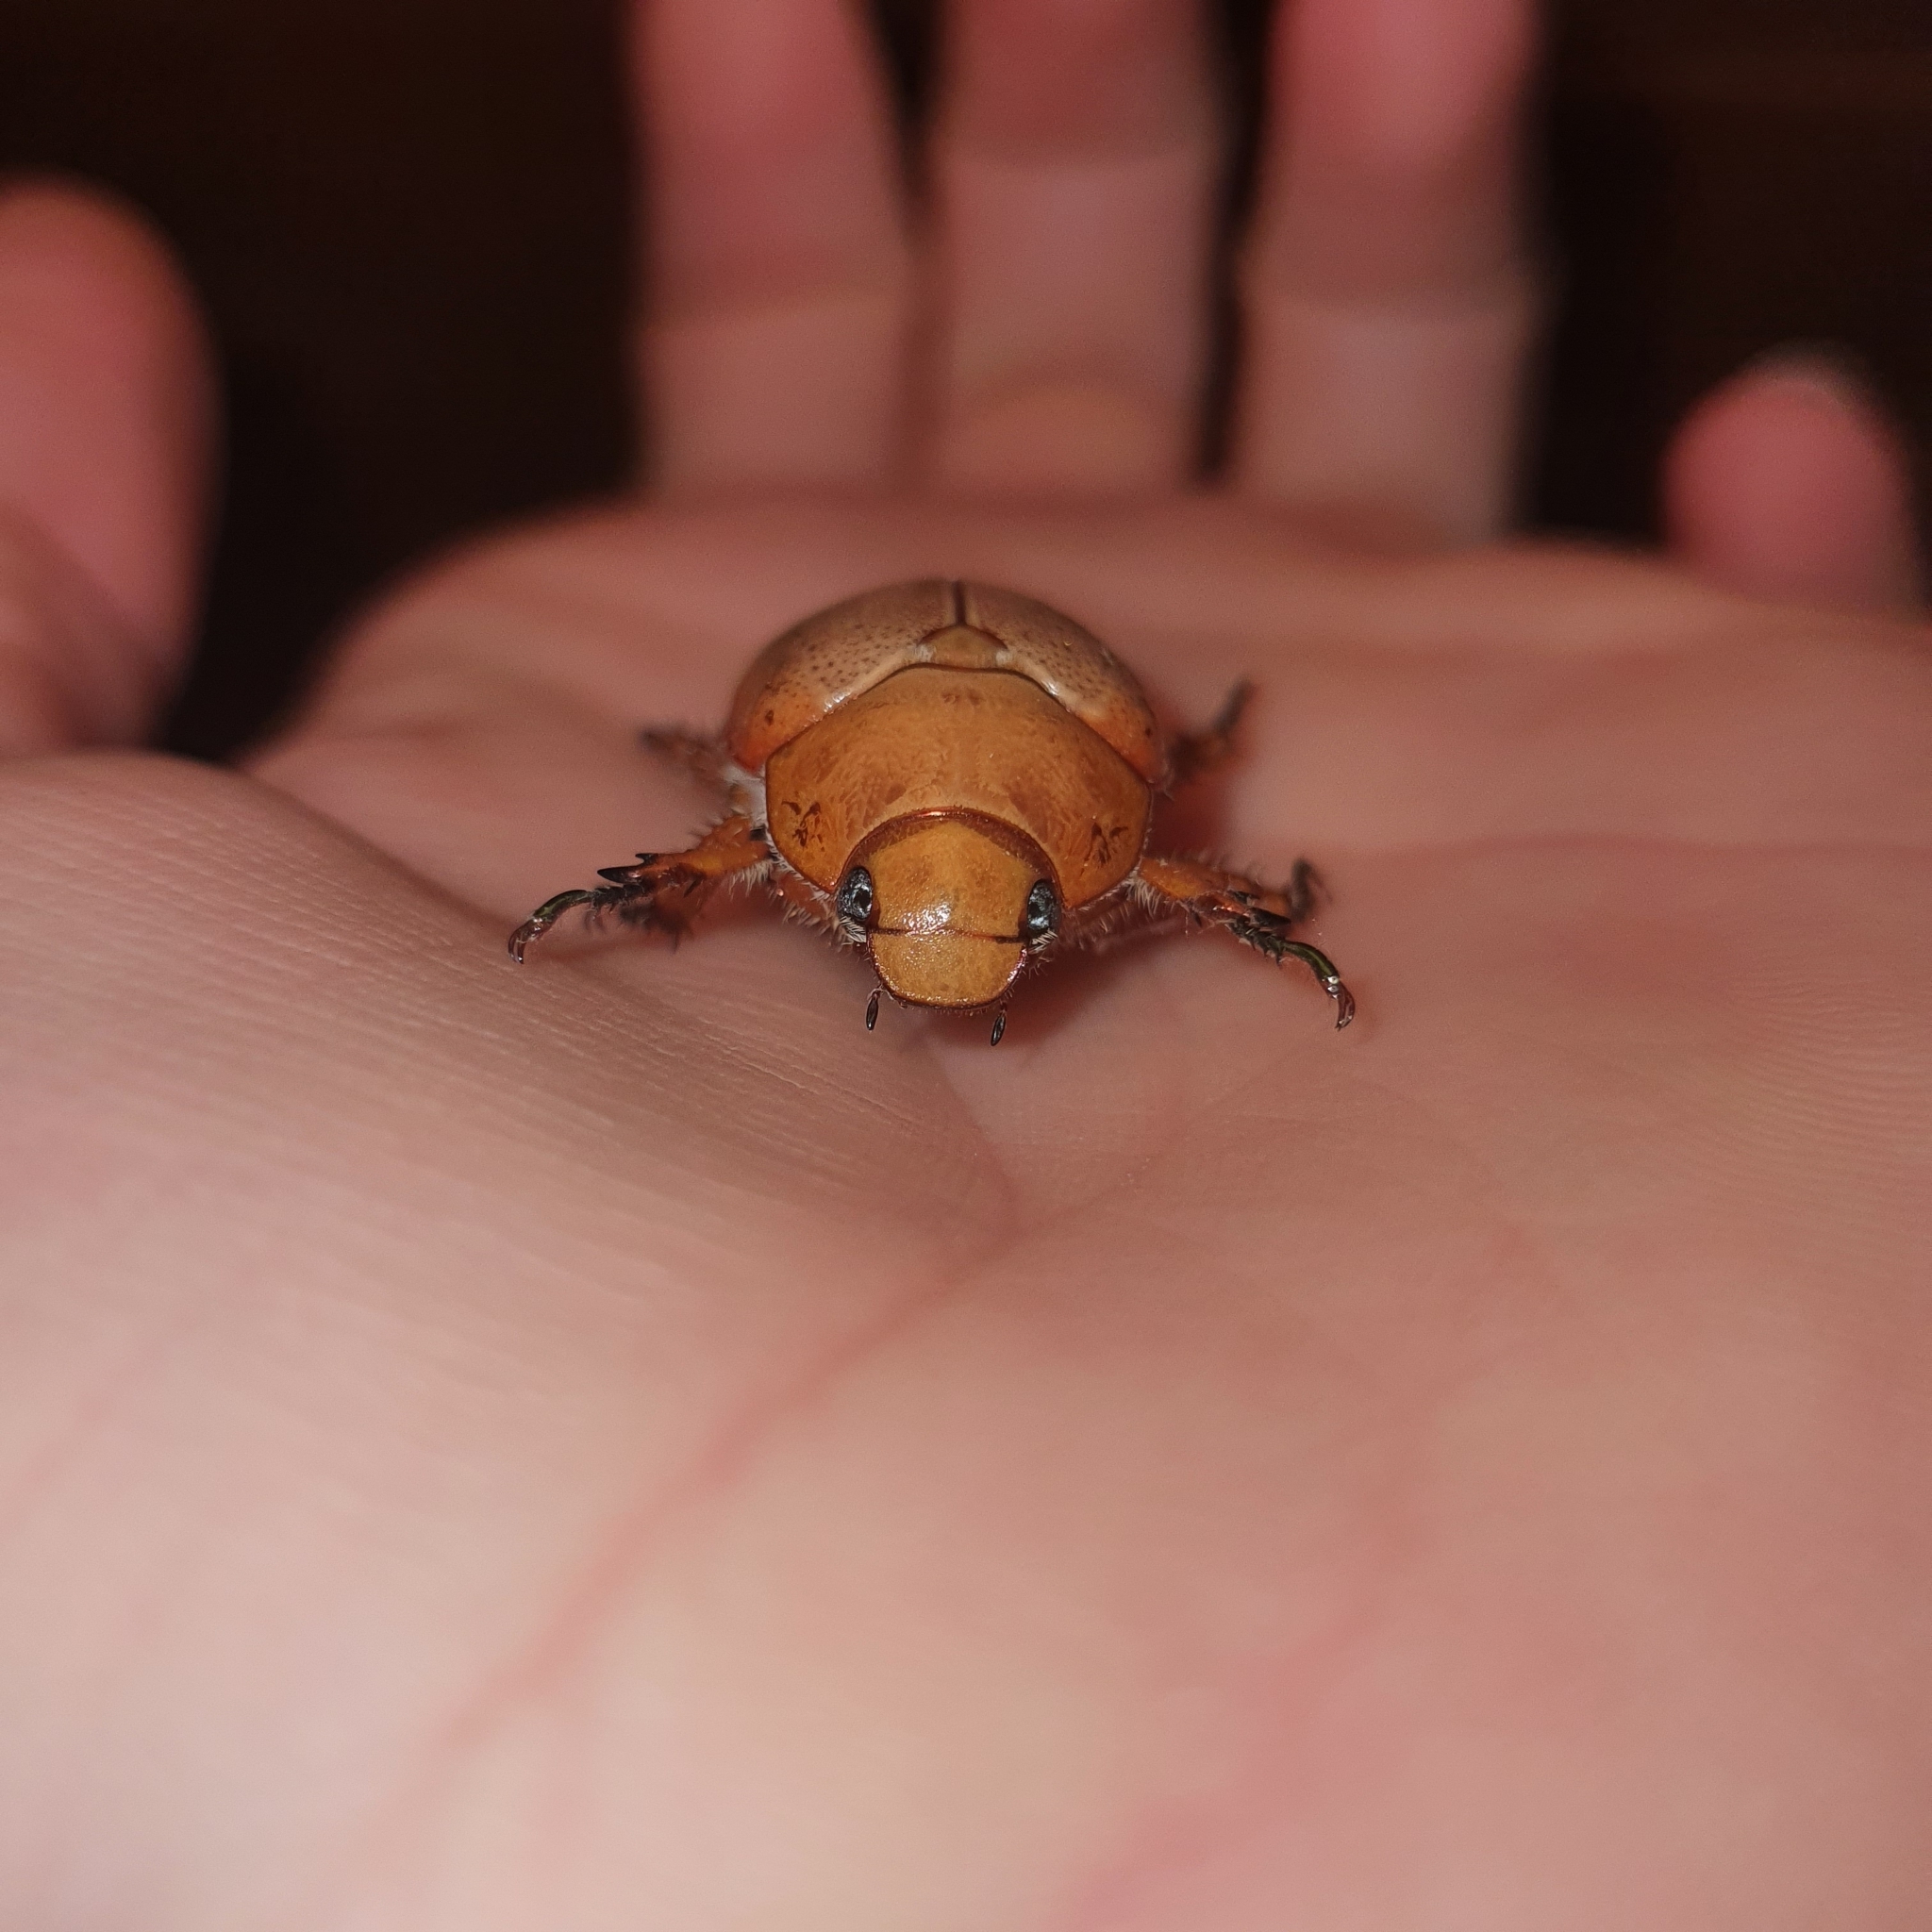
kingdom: Animalia
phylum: Arthropoda
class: Insecta
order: Coleoptera
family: Scarabaeidae
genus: Anoplognathus
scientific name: Anoplognathus porosus
